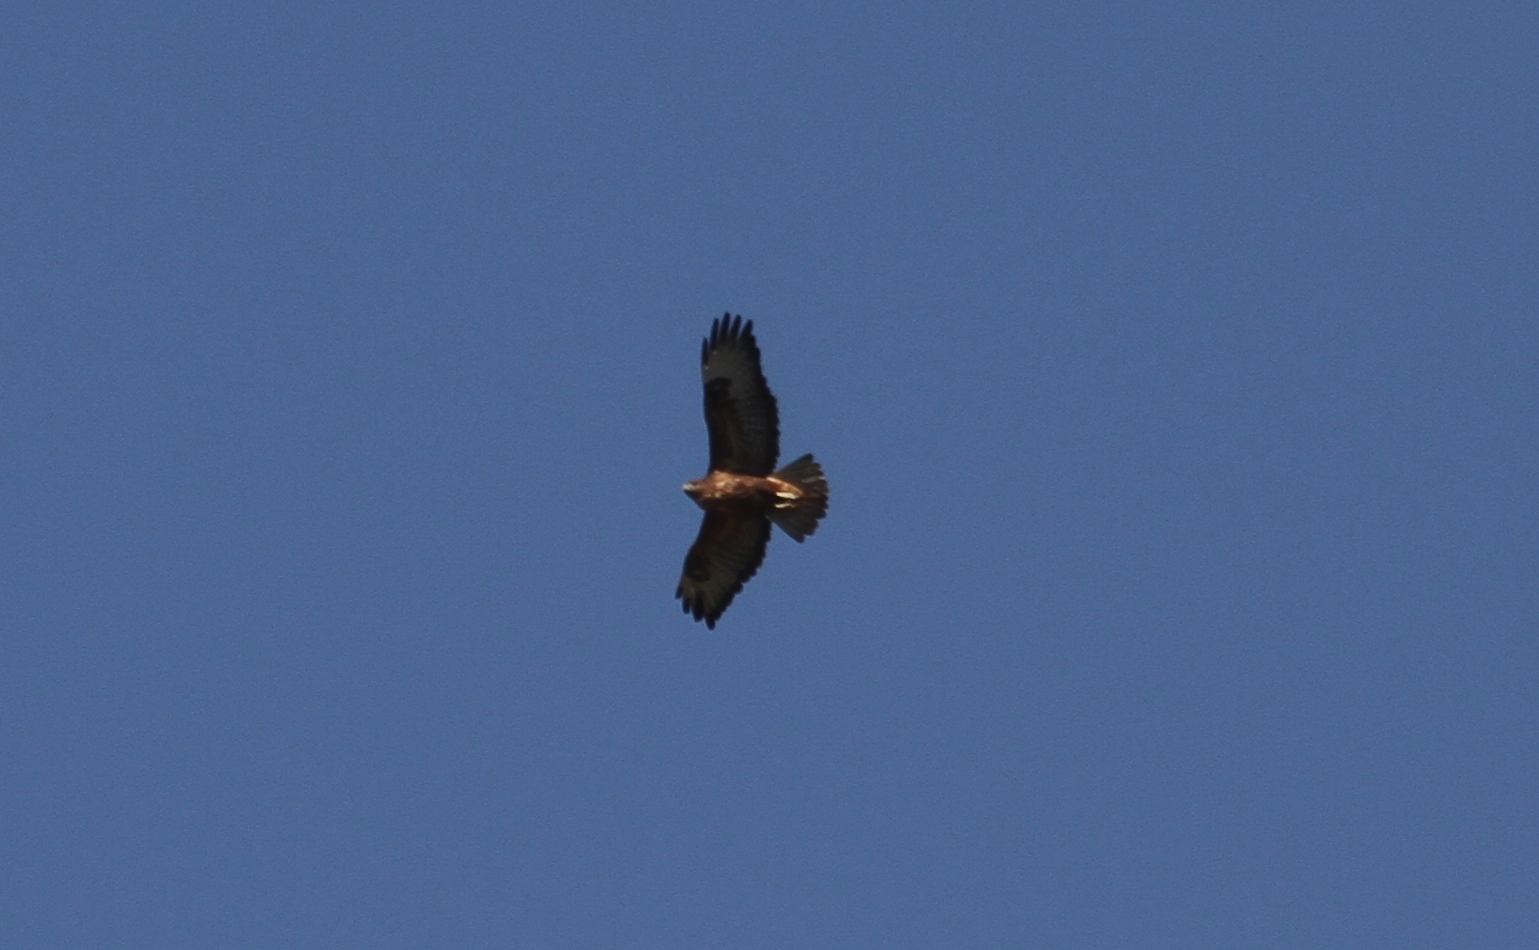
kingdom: Animalia
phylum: Chordata
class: Aves
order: Accipitriformes
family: Accipitridae
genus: Buteo
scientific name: Buteo buteo
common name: Common buzzard
